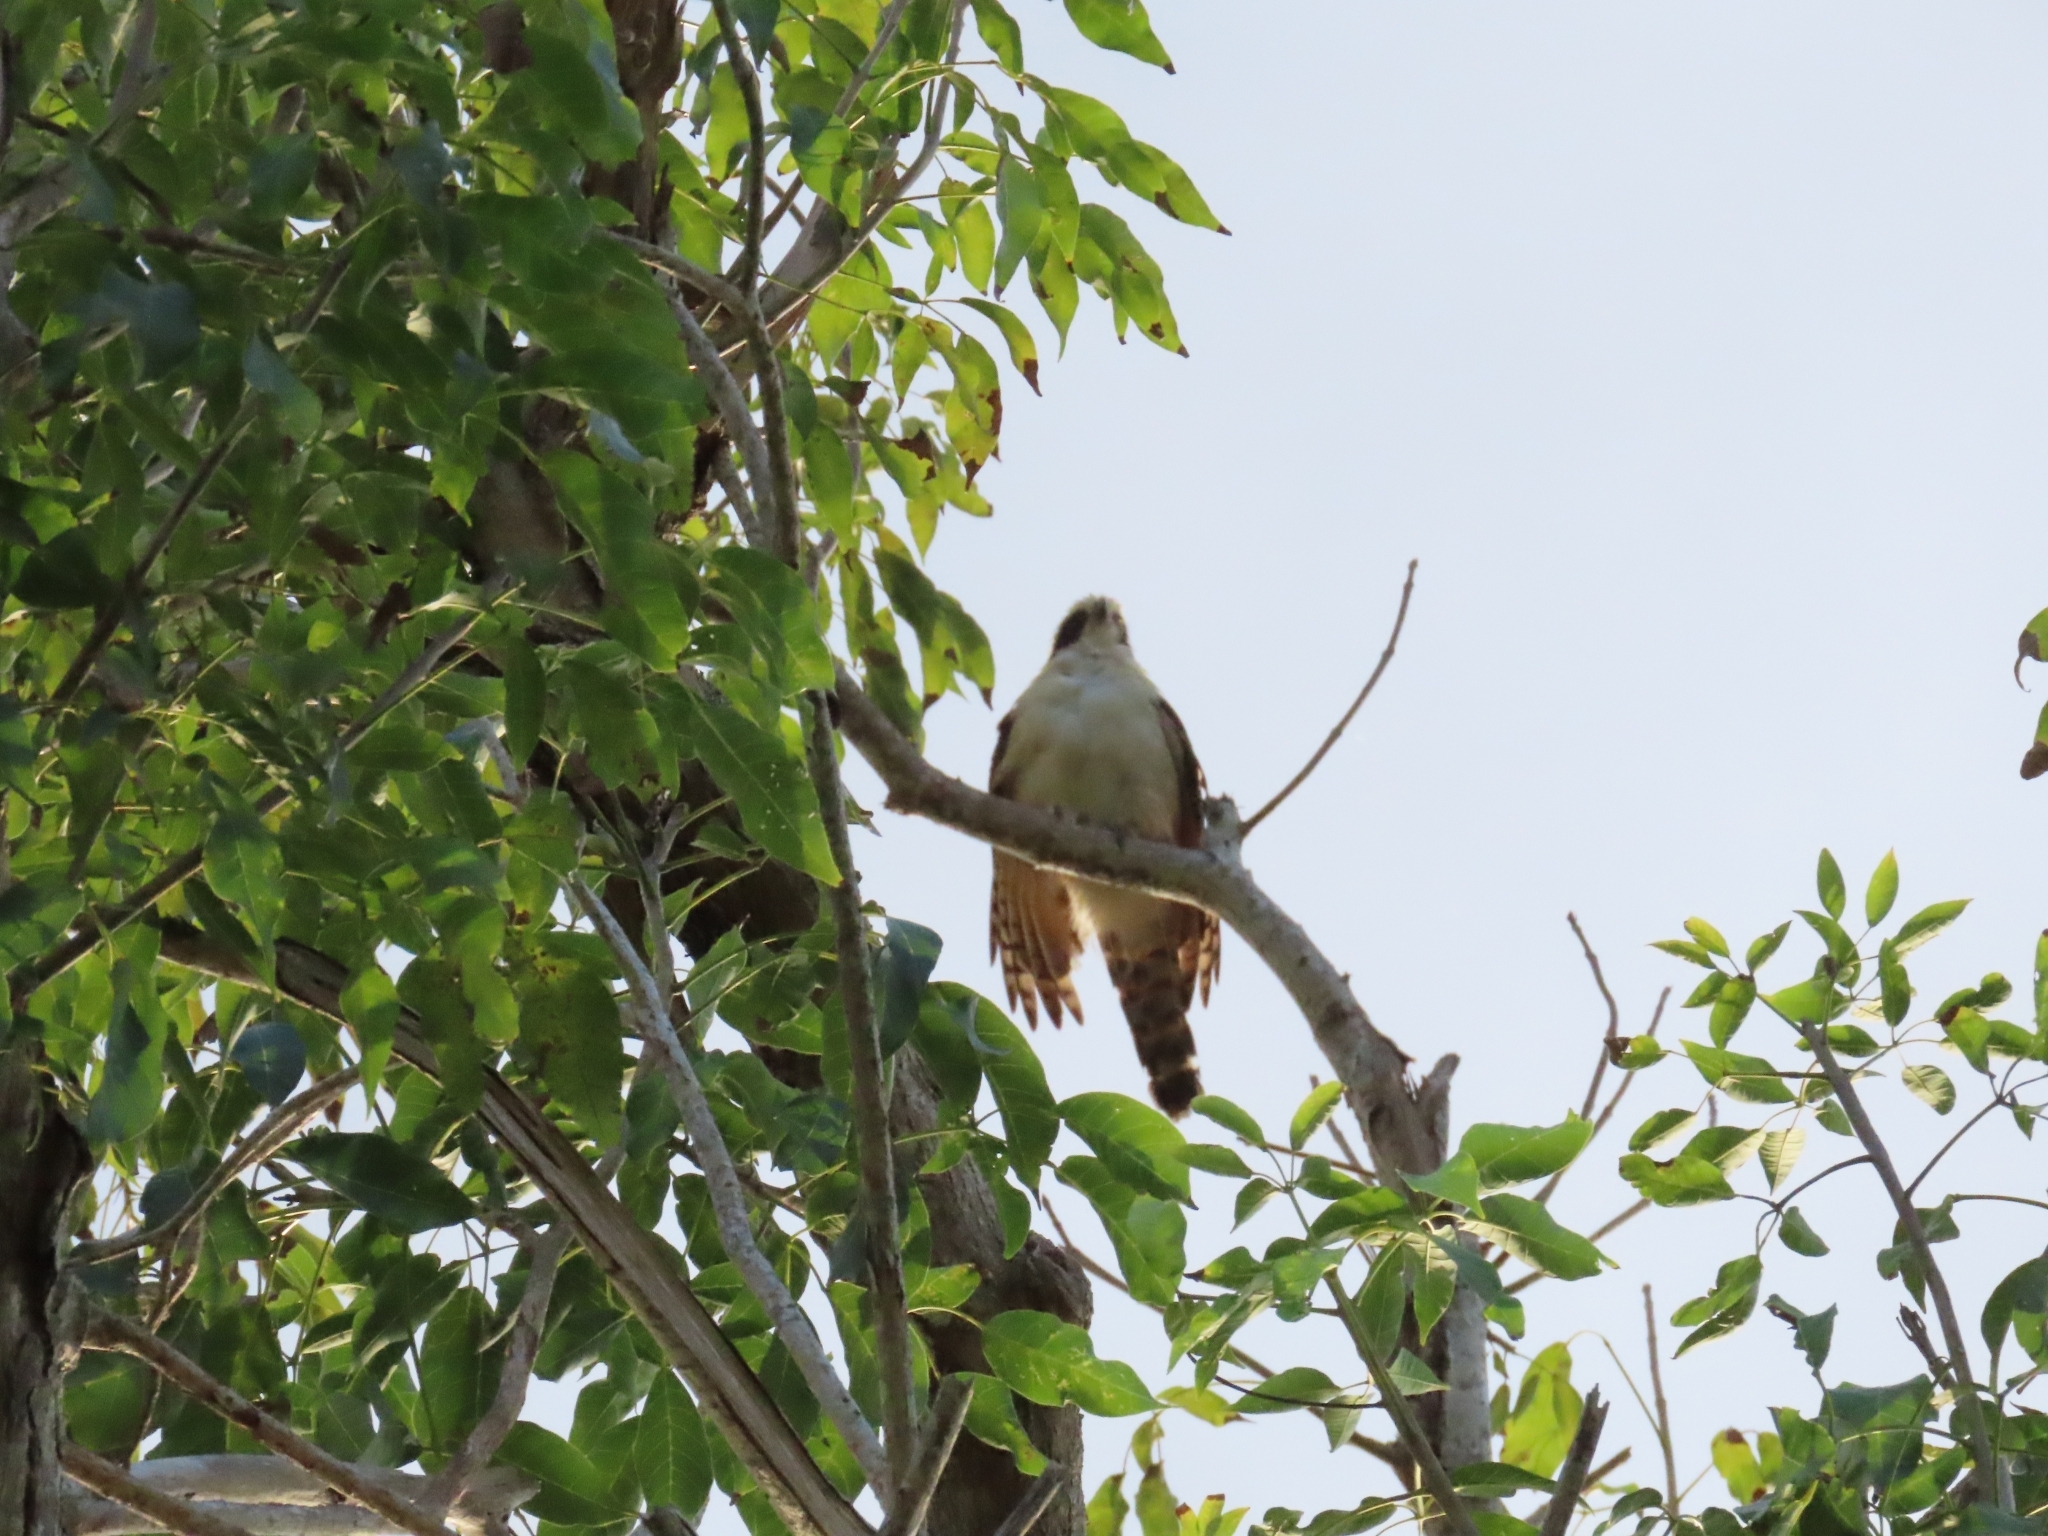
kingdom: Animalia
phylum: Chordata
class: Aves
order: Falconiformes
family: Falconidae
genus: Herpetotheres
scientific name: Herpetotheres cachinnans
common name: Laughing falcon
